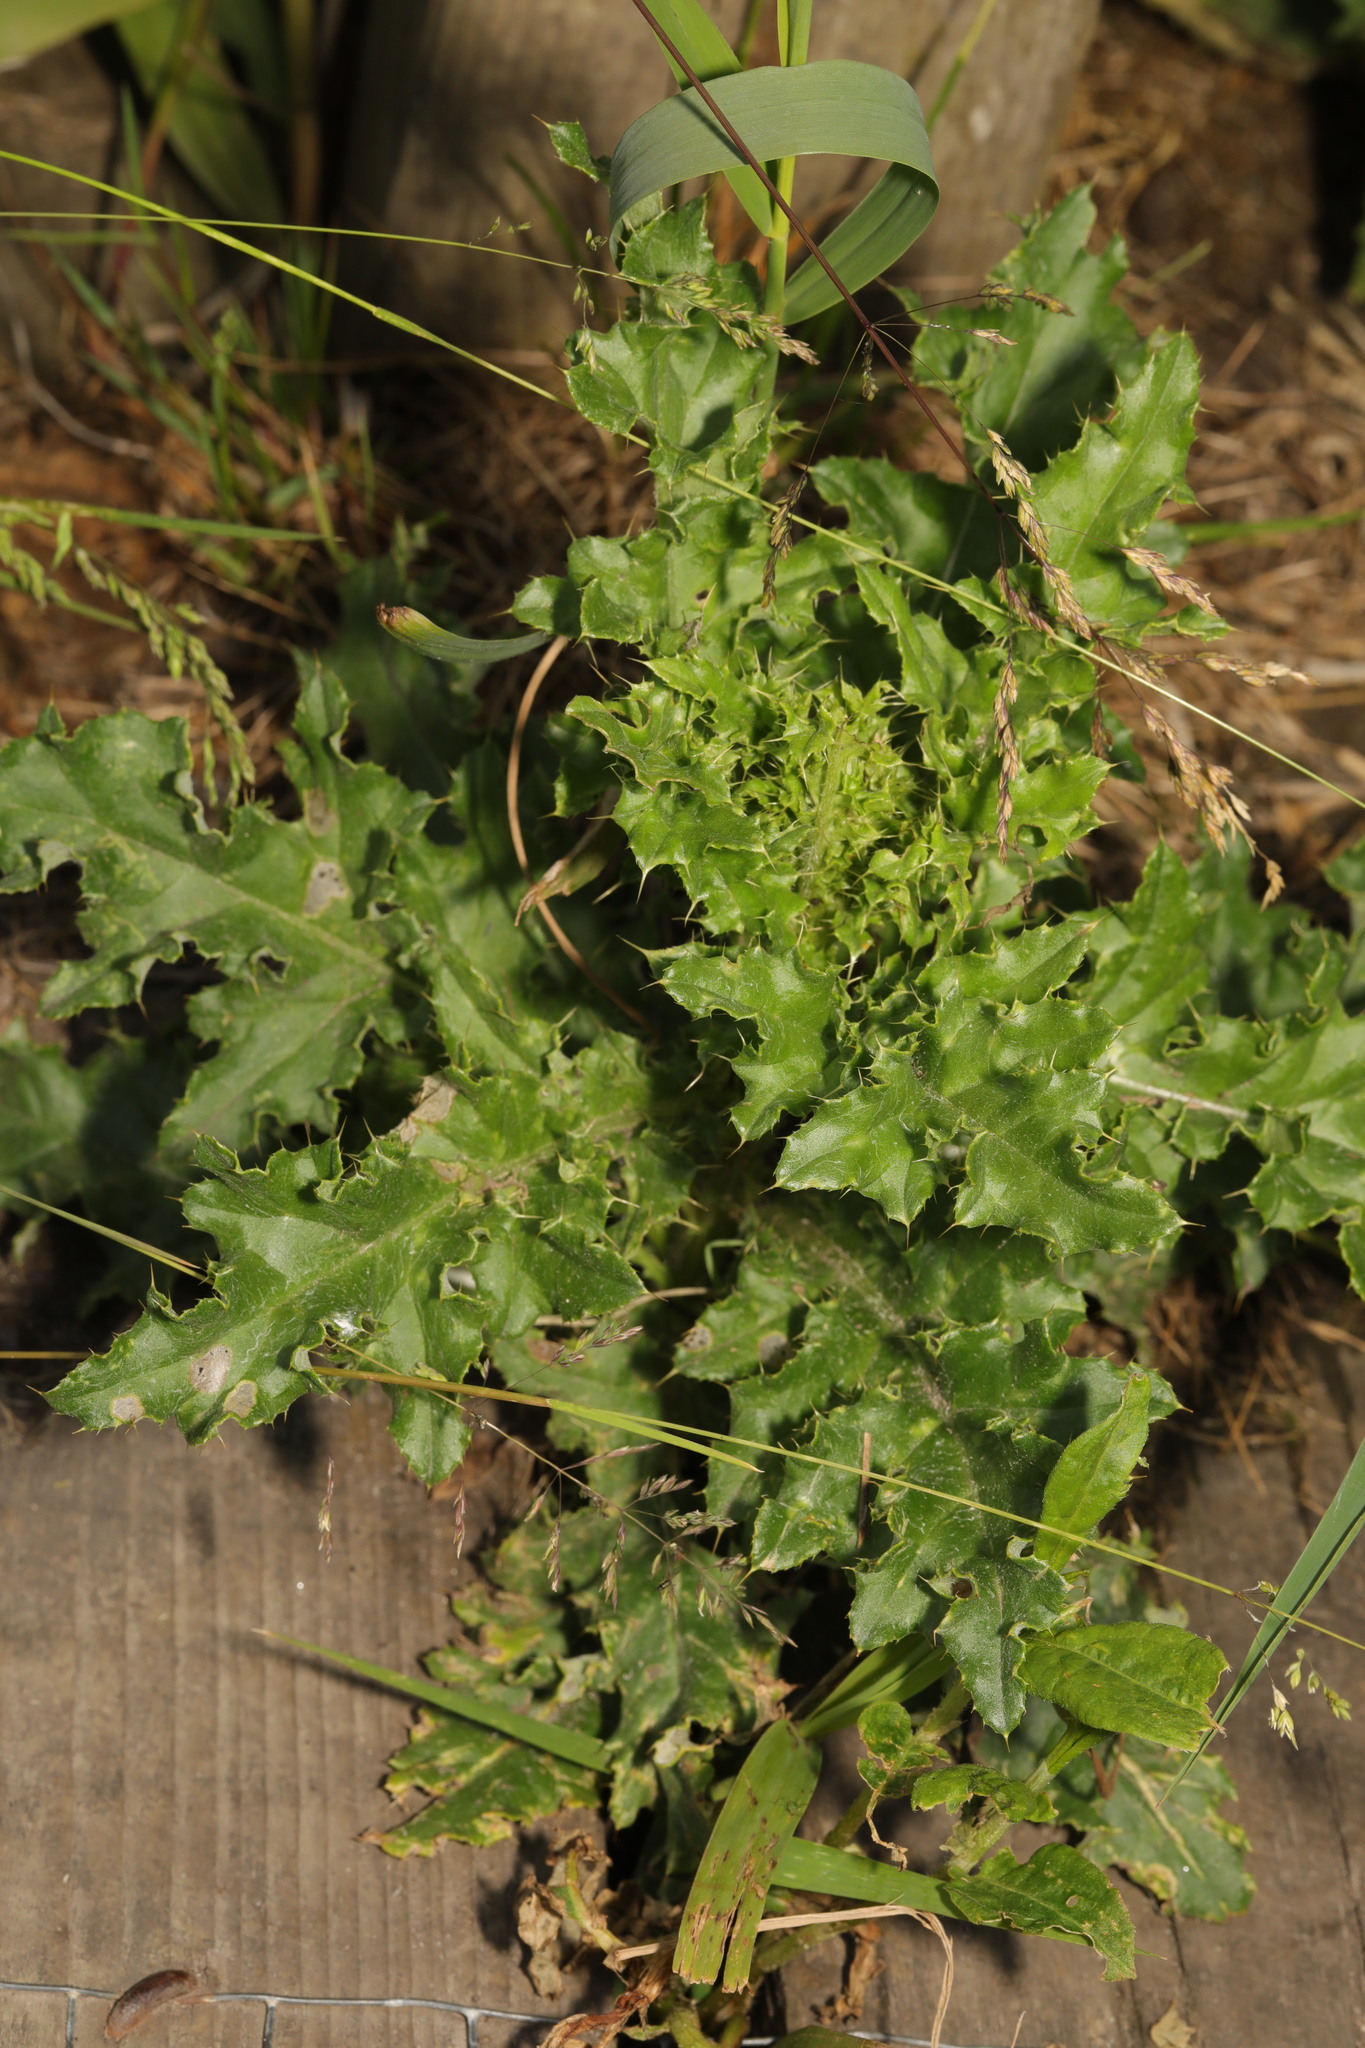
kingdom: Plantae
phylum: Tracheophyta
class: Magnoliopsida
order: Asterales
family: Asteraceae
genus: Cirsium
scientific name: Cirsium arvense
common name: Creeping thistle
